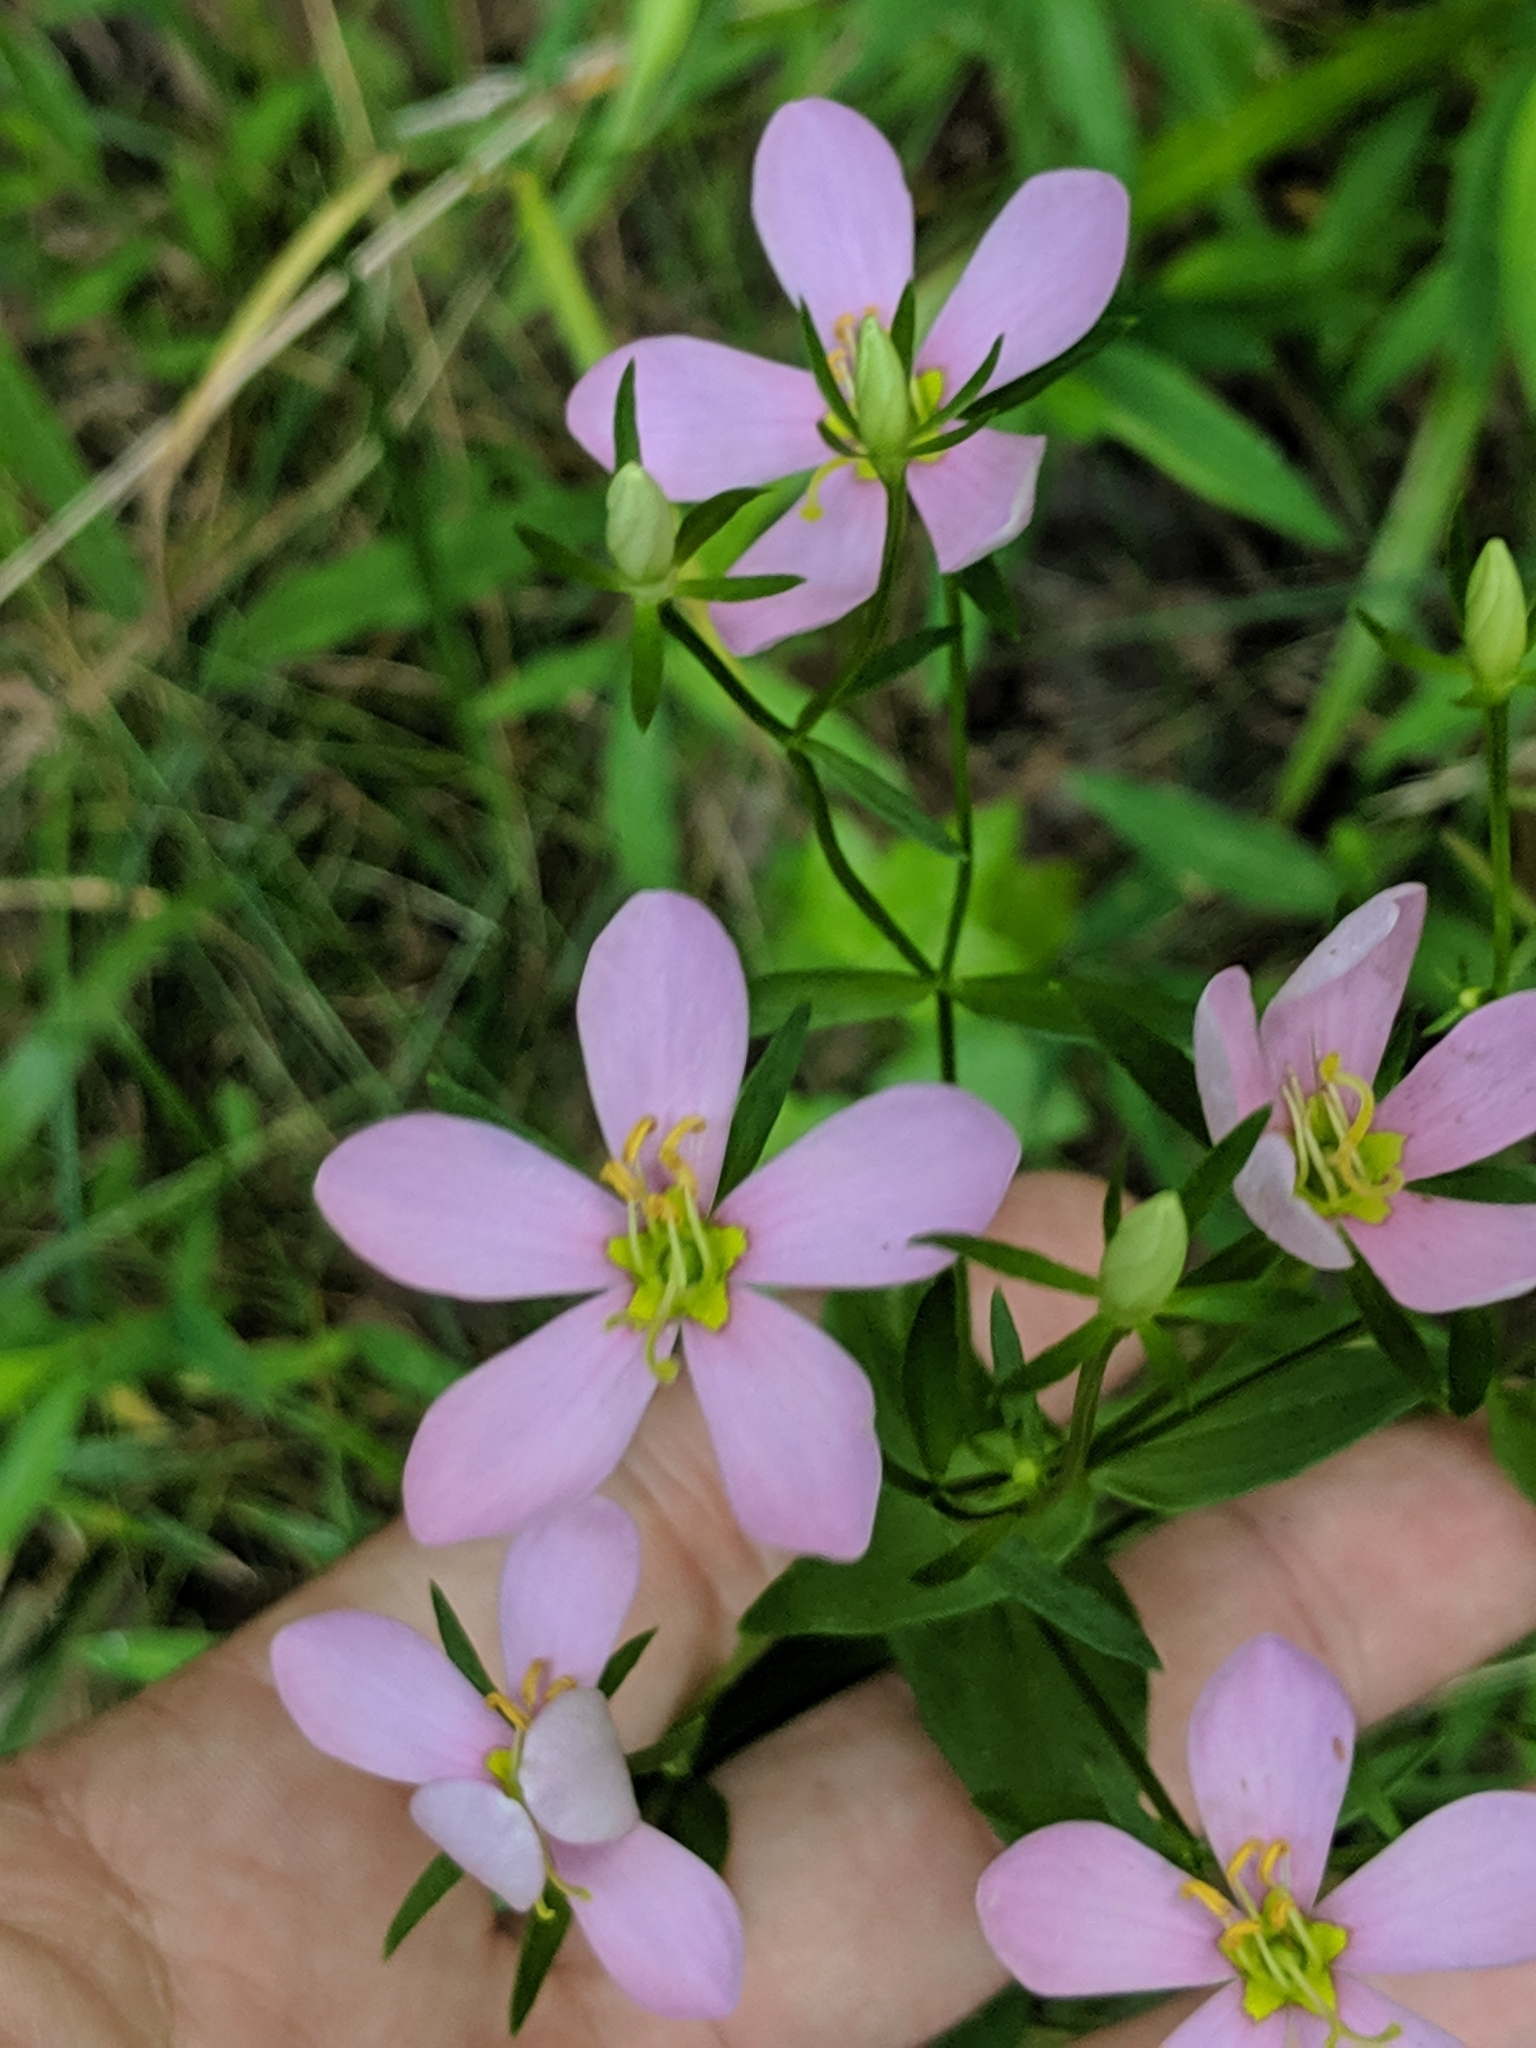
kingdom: Plantae
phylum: Tracheophyta
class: Magnoliopsida
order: Gentianales
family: Gentianaceae
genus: Sabatia
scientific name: Sabatia angularis
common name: Rose-pink
